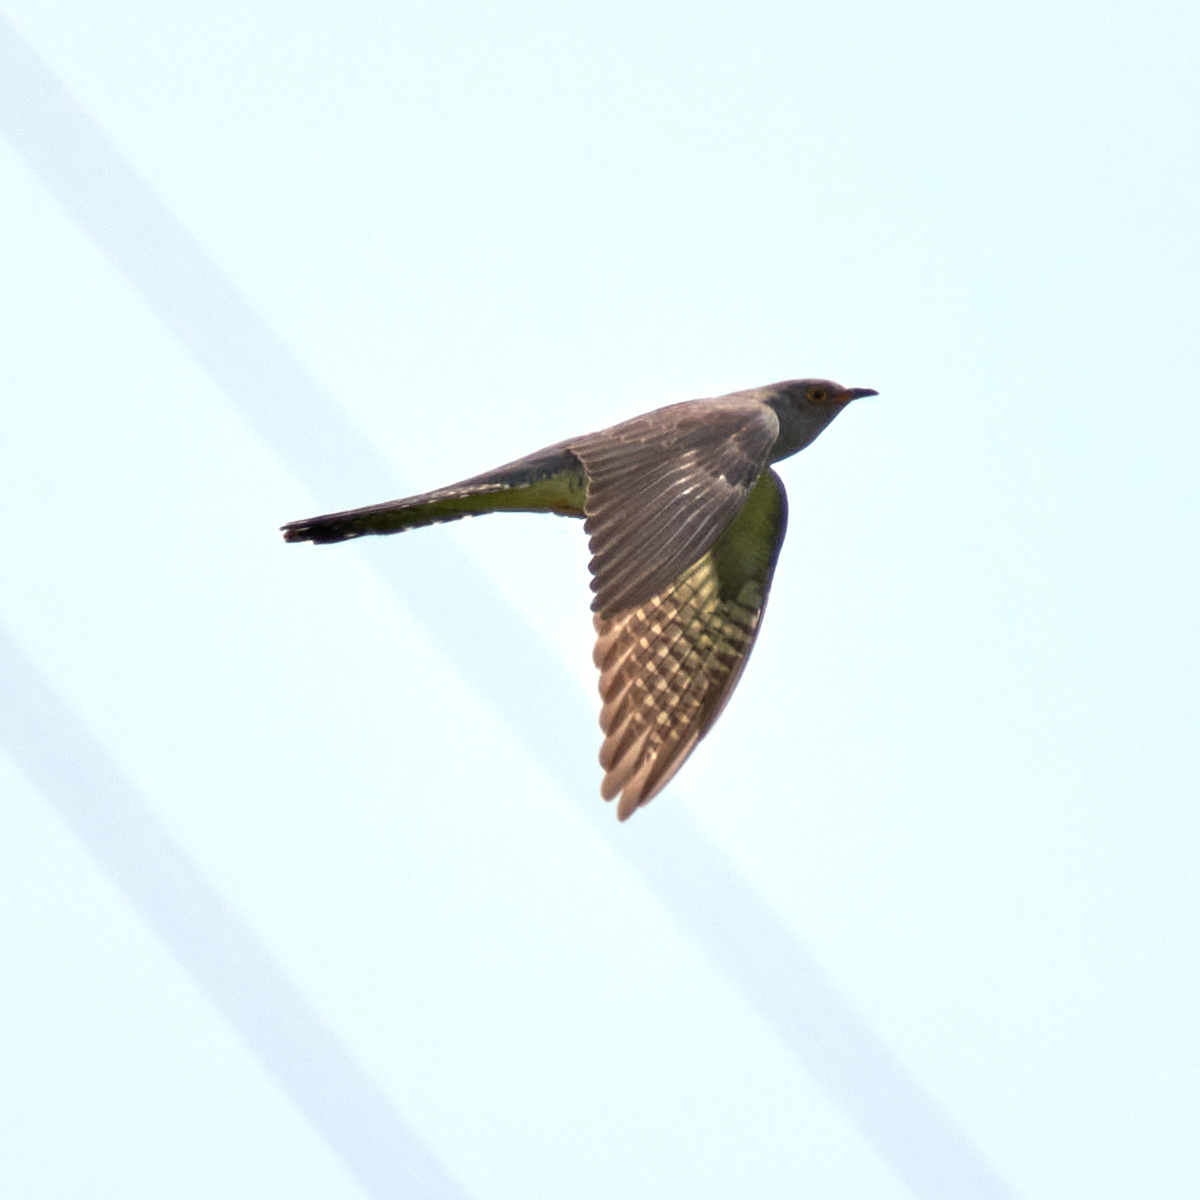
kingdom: Animalia
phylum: Chordata
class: Aves
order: Cuculiformes
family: Cuculidae
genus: Cuculus
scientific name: Cuculus canorus
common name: Common cuckoo
